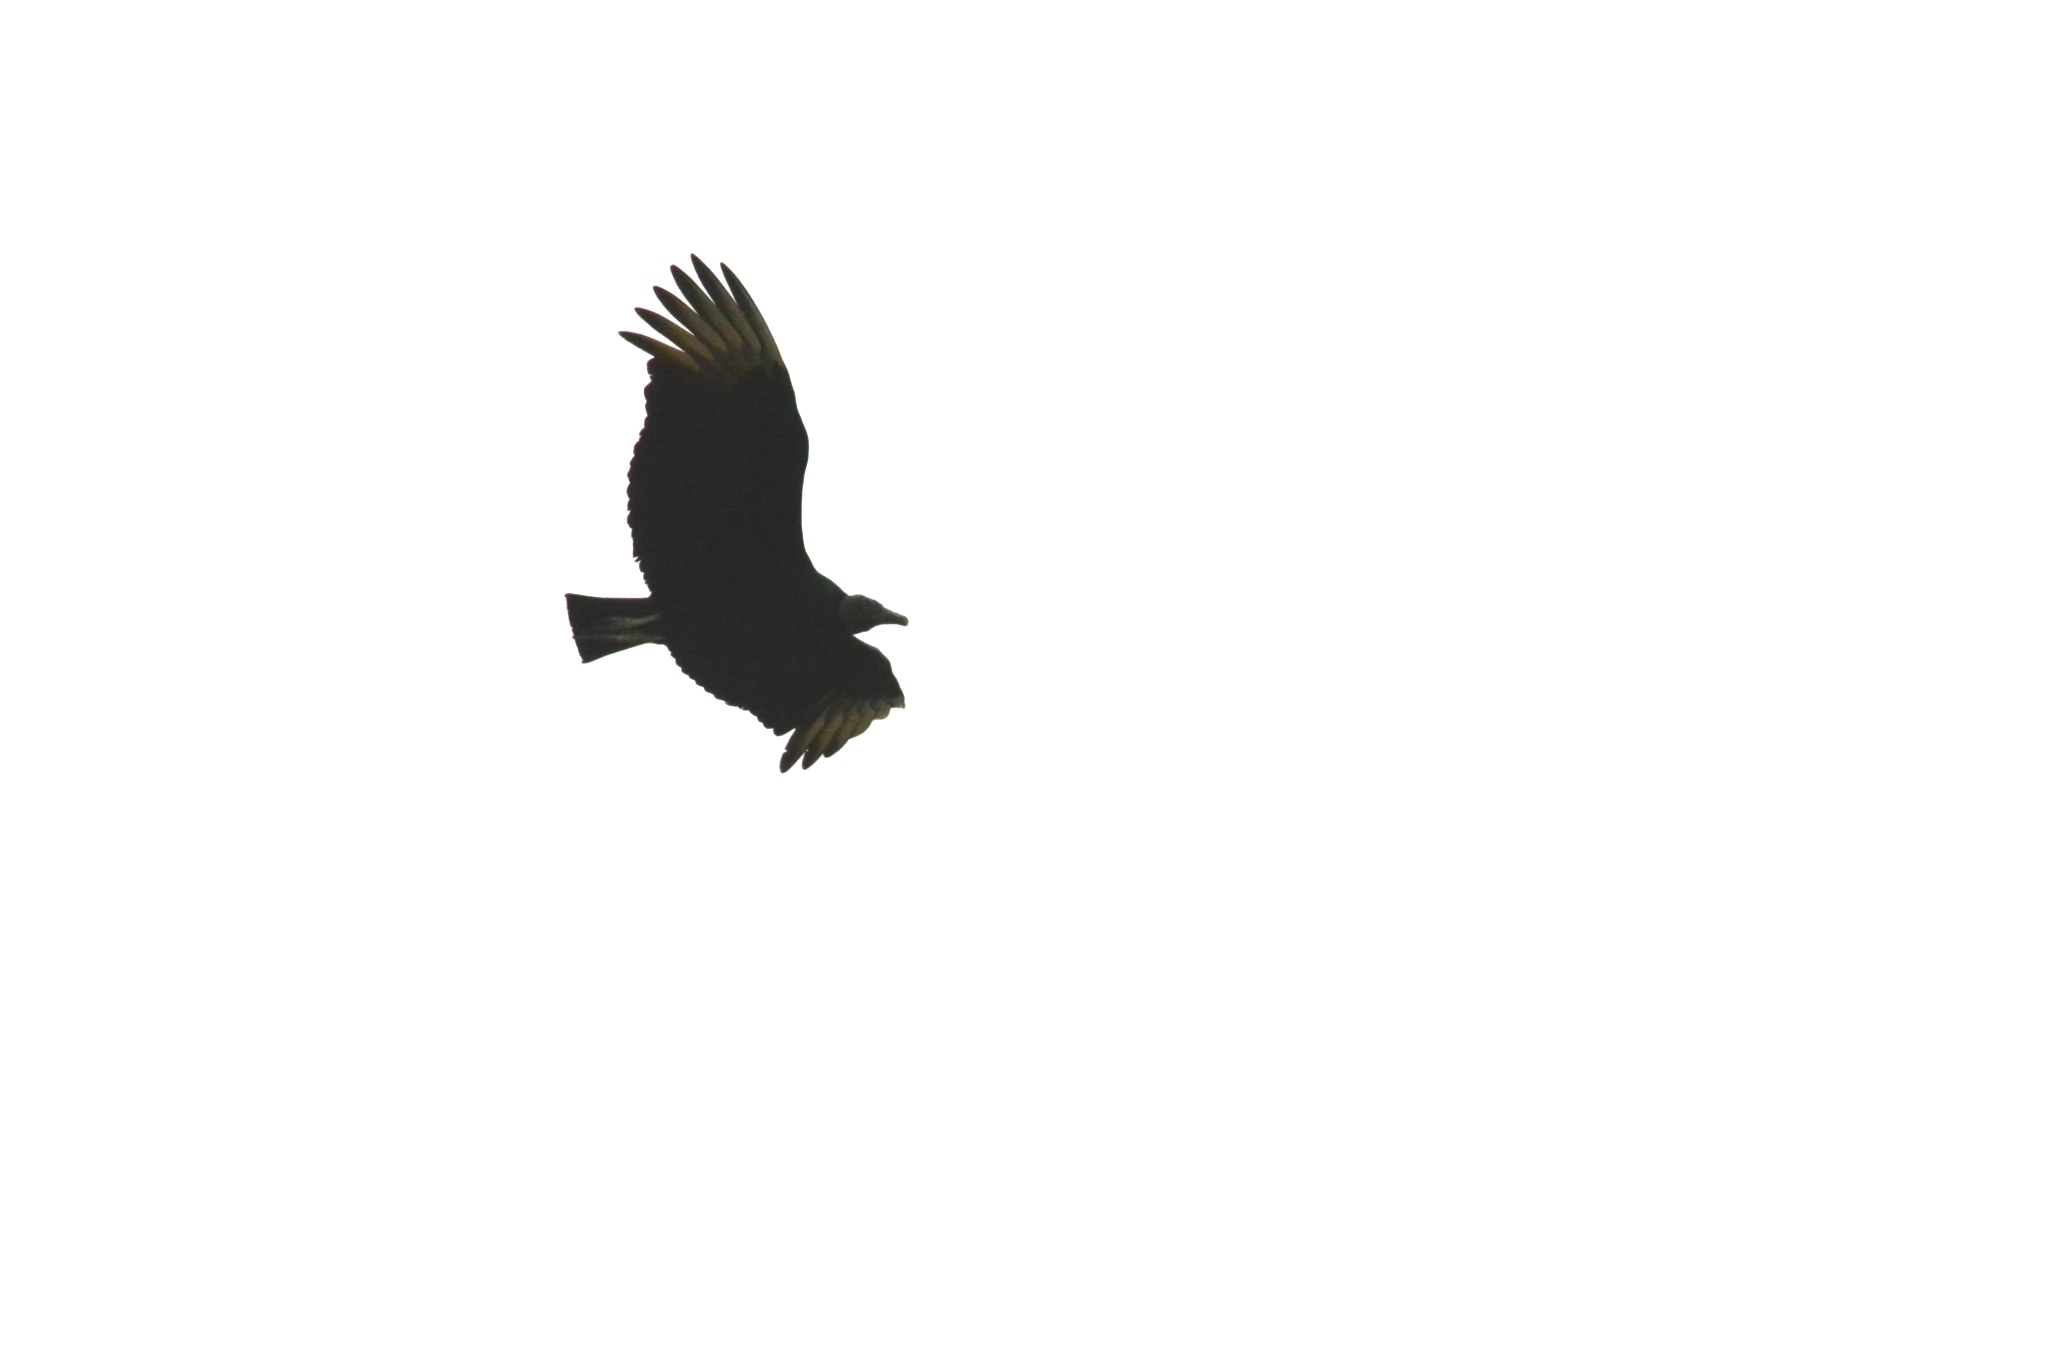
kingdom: Animalia
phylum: Chordata
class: Aves
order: Accipitriformes
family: Cathartidae
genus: Coragyps
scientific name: Coragyps atratus
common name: Black vulture
